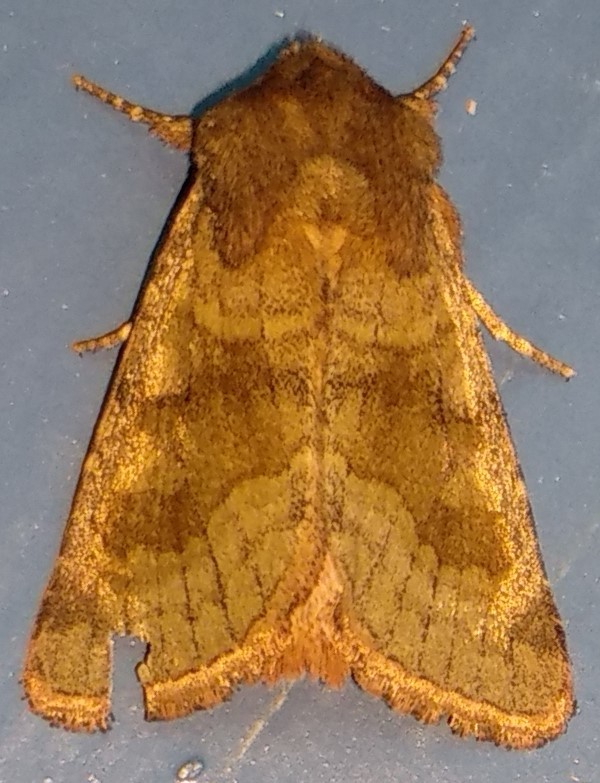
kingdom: Animalia
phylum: Arthropoda
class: Insecta
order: Lepidoptera
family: Noctuidae
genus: Nephelodes
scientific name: Nephelodes minians
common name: Bronzed cutworm
